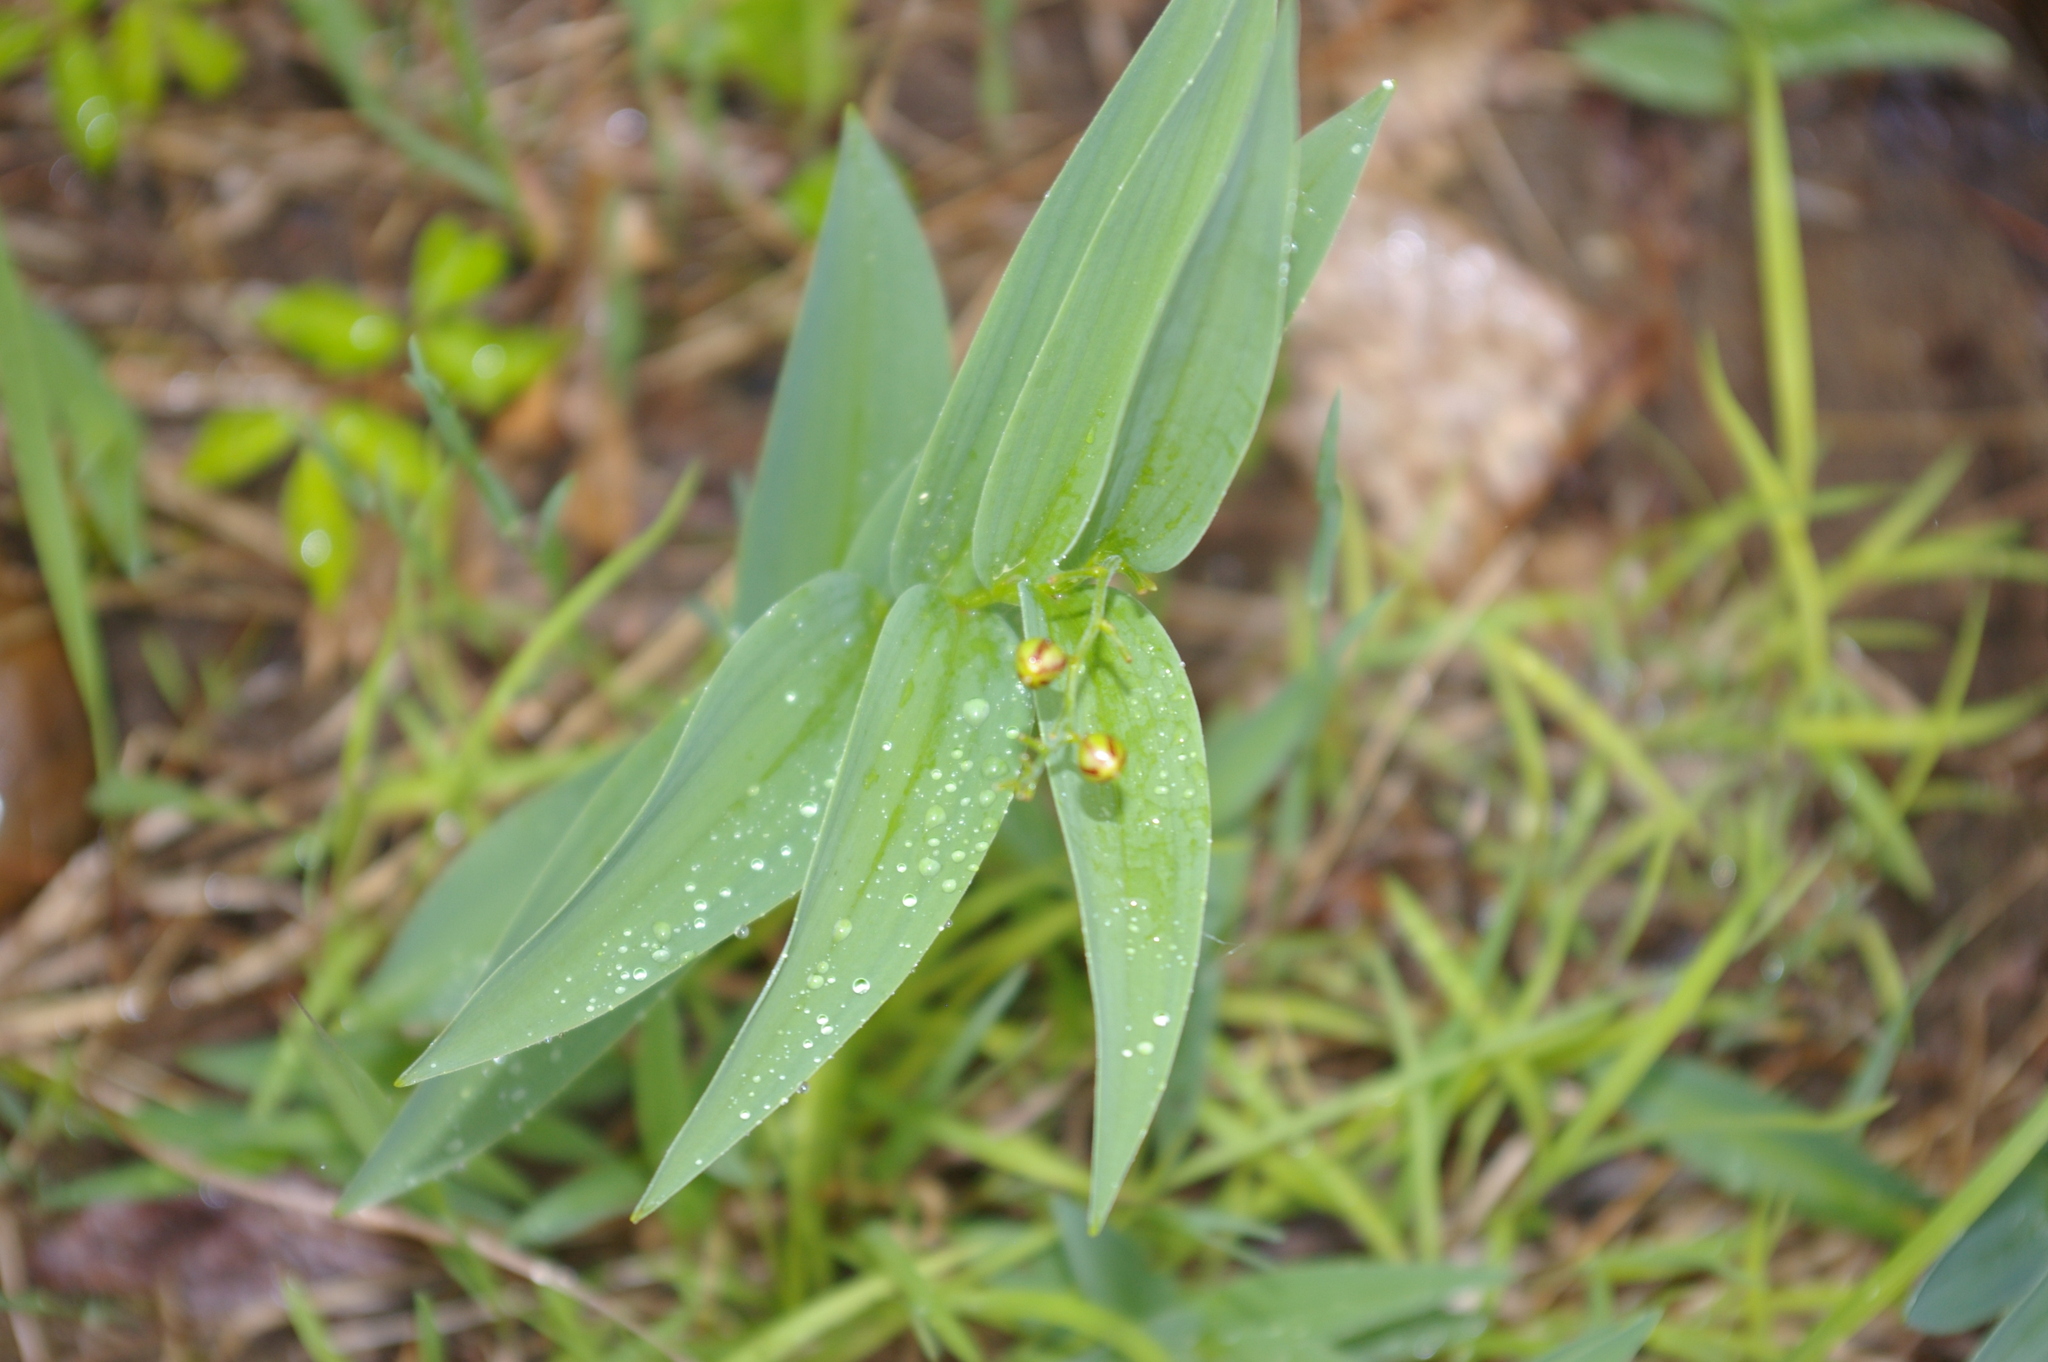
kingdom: Plantae
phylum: Tracheophyta
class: Liliopsida
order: Asparagales
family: Asparagaceae
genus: Maianthemum
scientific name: Maianthemum stellatum
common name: Little false solomon's seal
